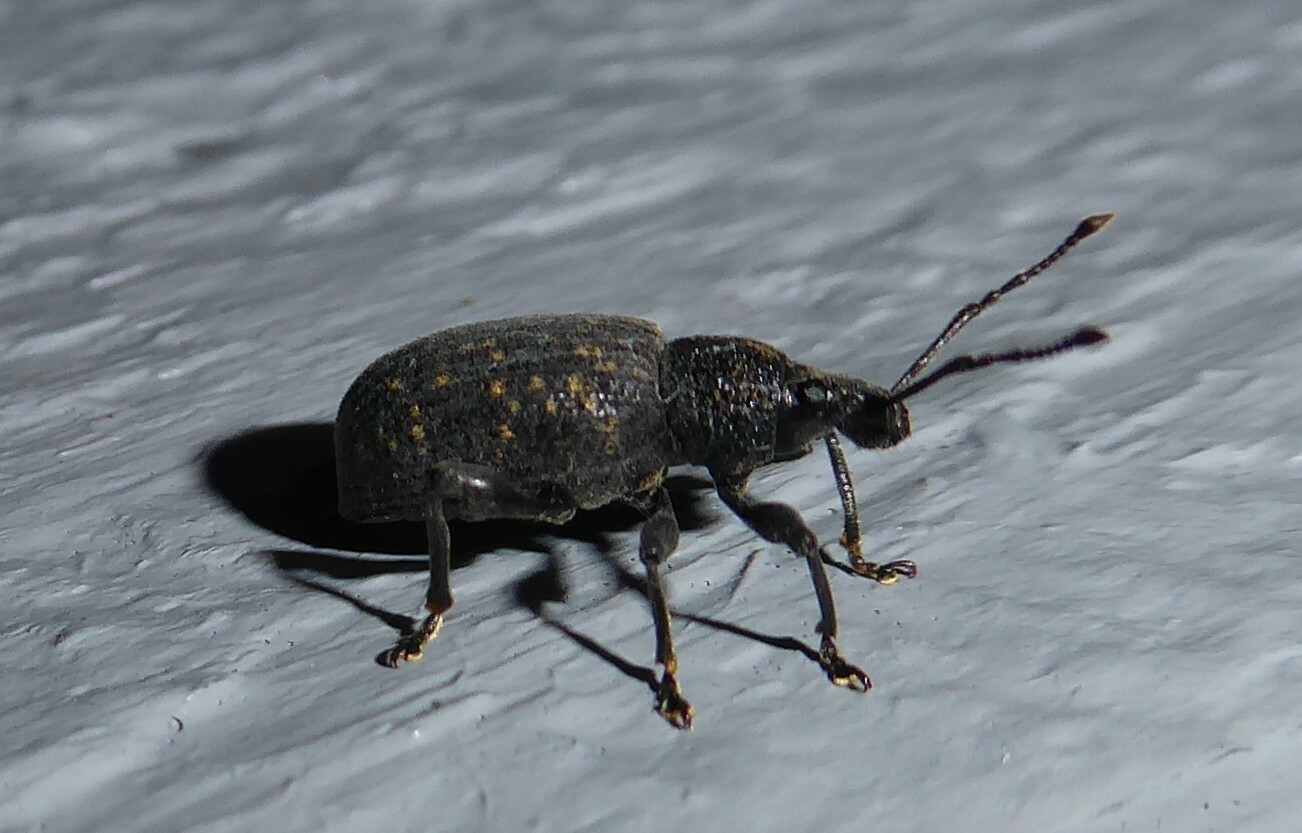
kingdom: Animalia
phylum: Arthropoda
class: Insecta
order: Coleoptera
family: Curculionidae
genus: Otiorhynchus
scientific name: Otiorhynchus sulcatus
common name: Black vine weevil
